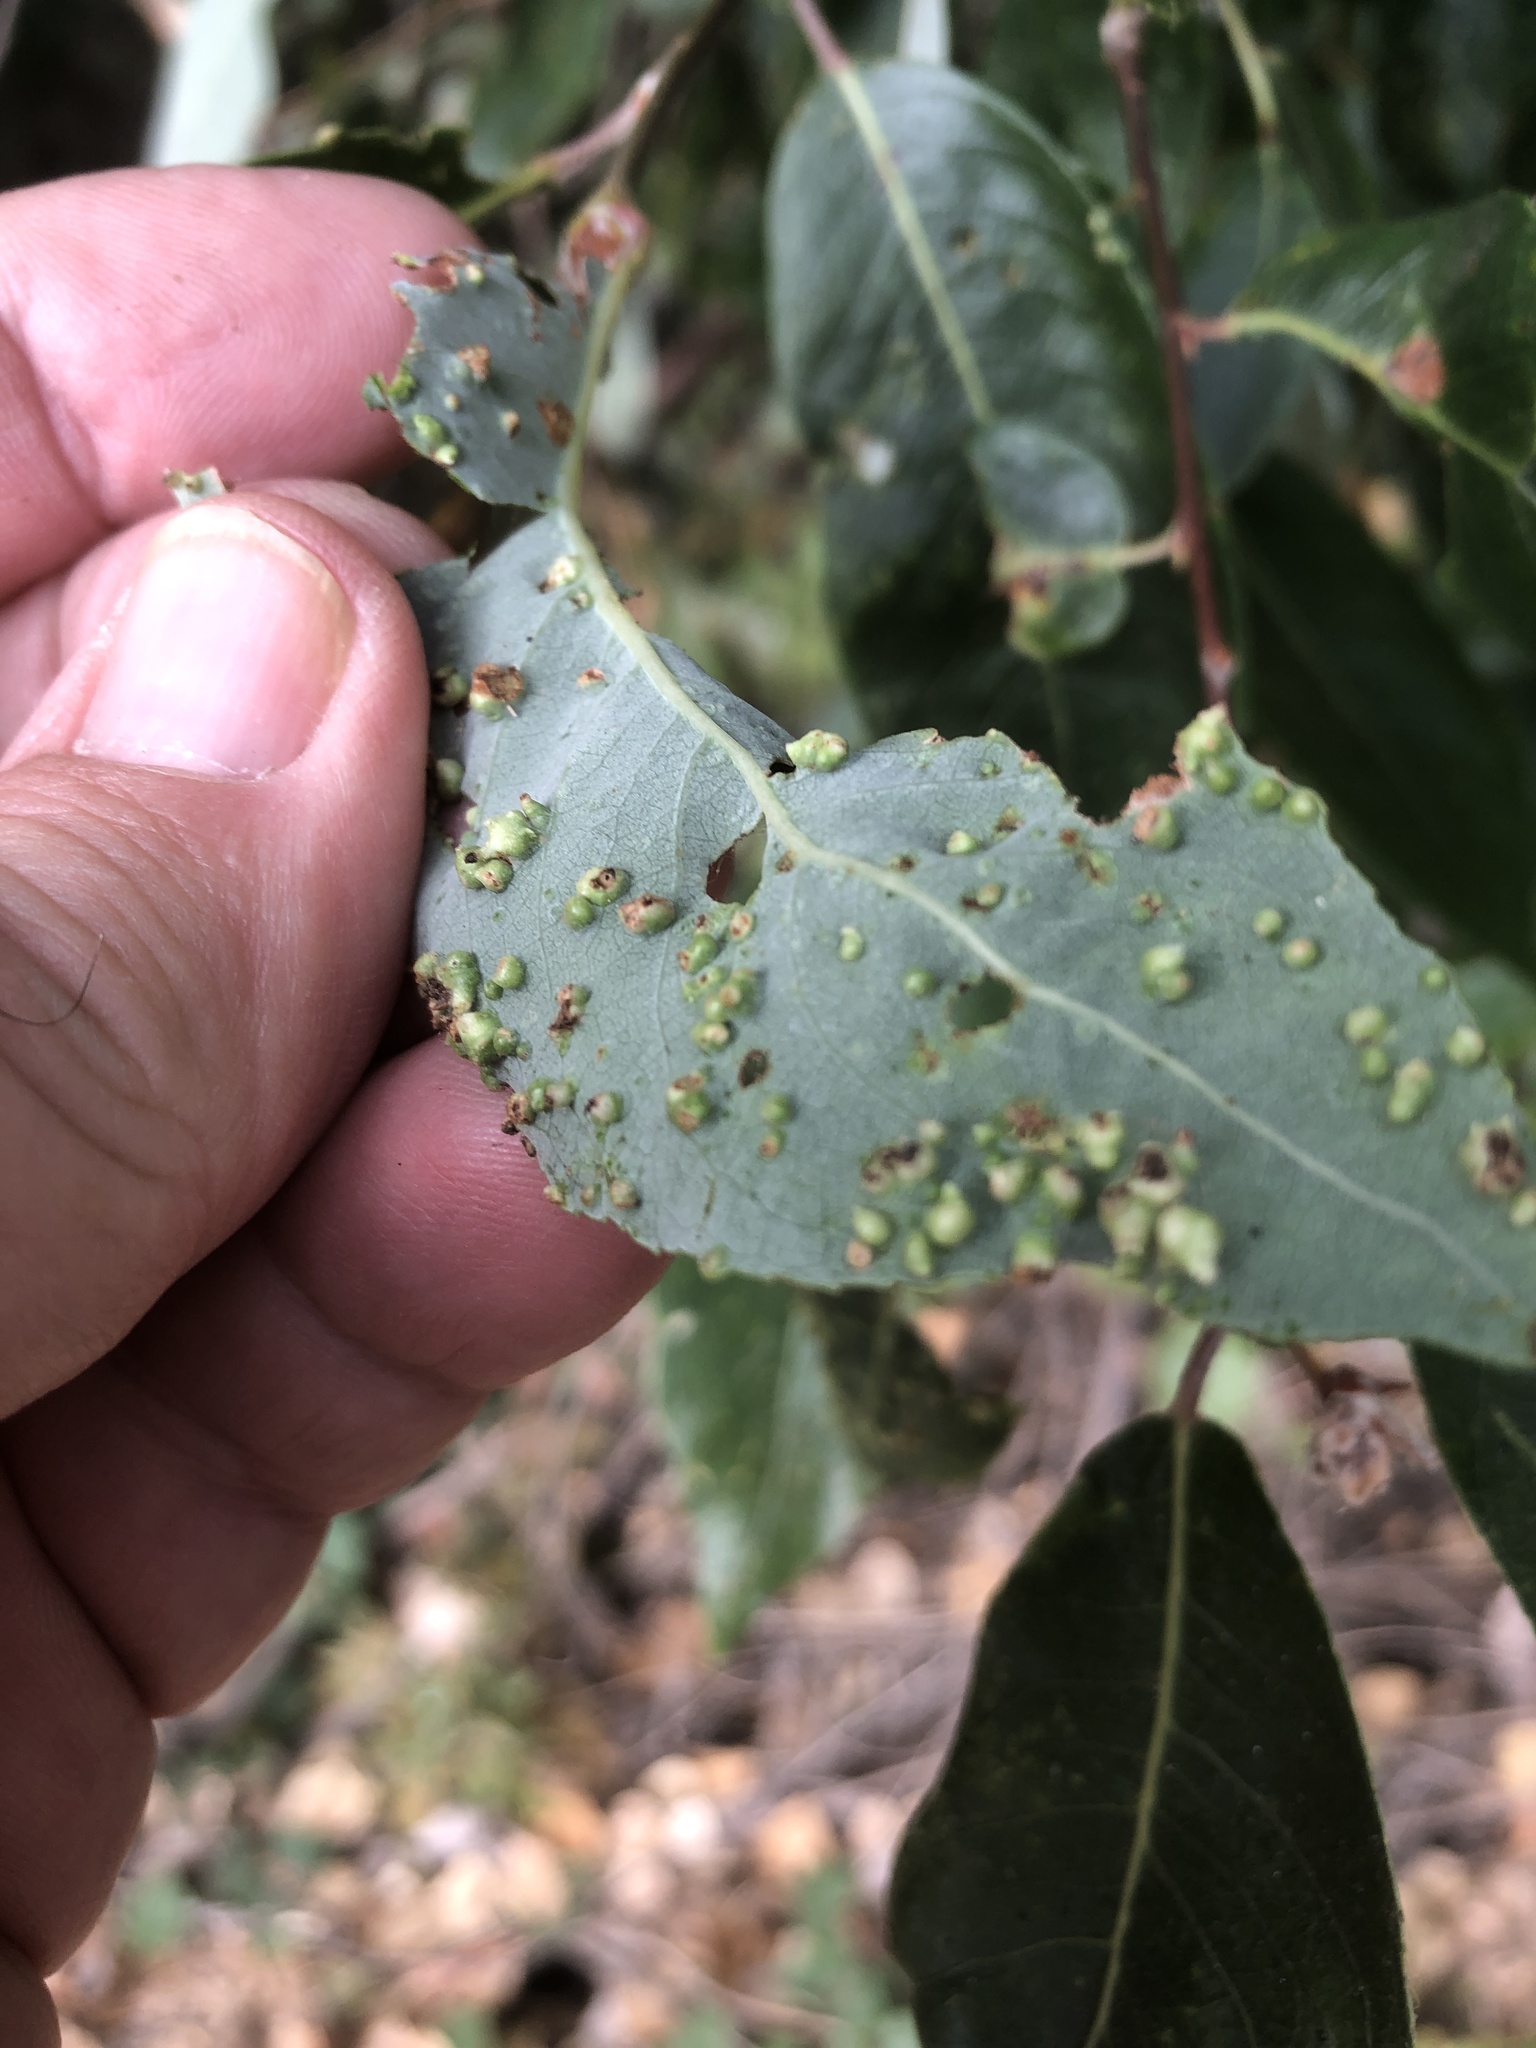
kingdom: Animalia
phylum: Arthropoda
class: Arachnida
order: Trombidiformes
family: Eriophyidae
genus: Aculus
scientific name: Aculus tetanothrix
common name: Willow bead gall mite
